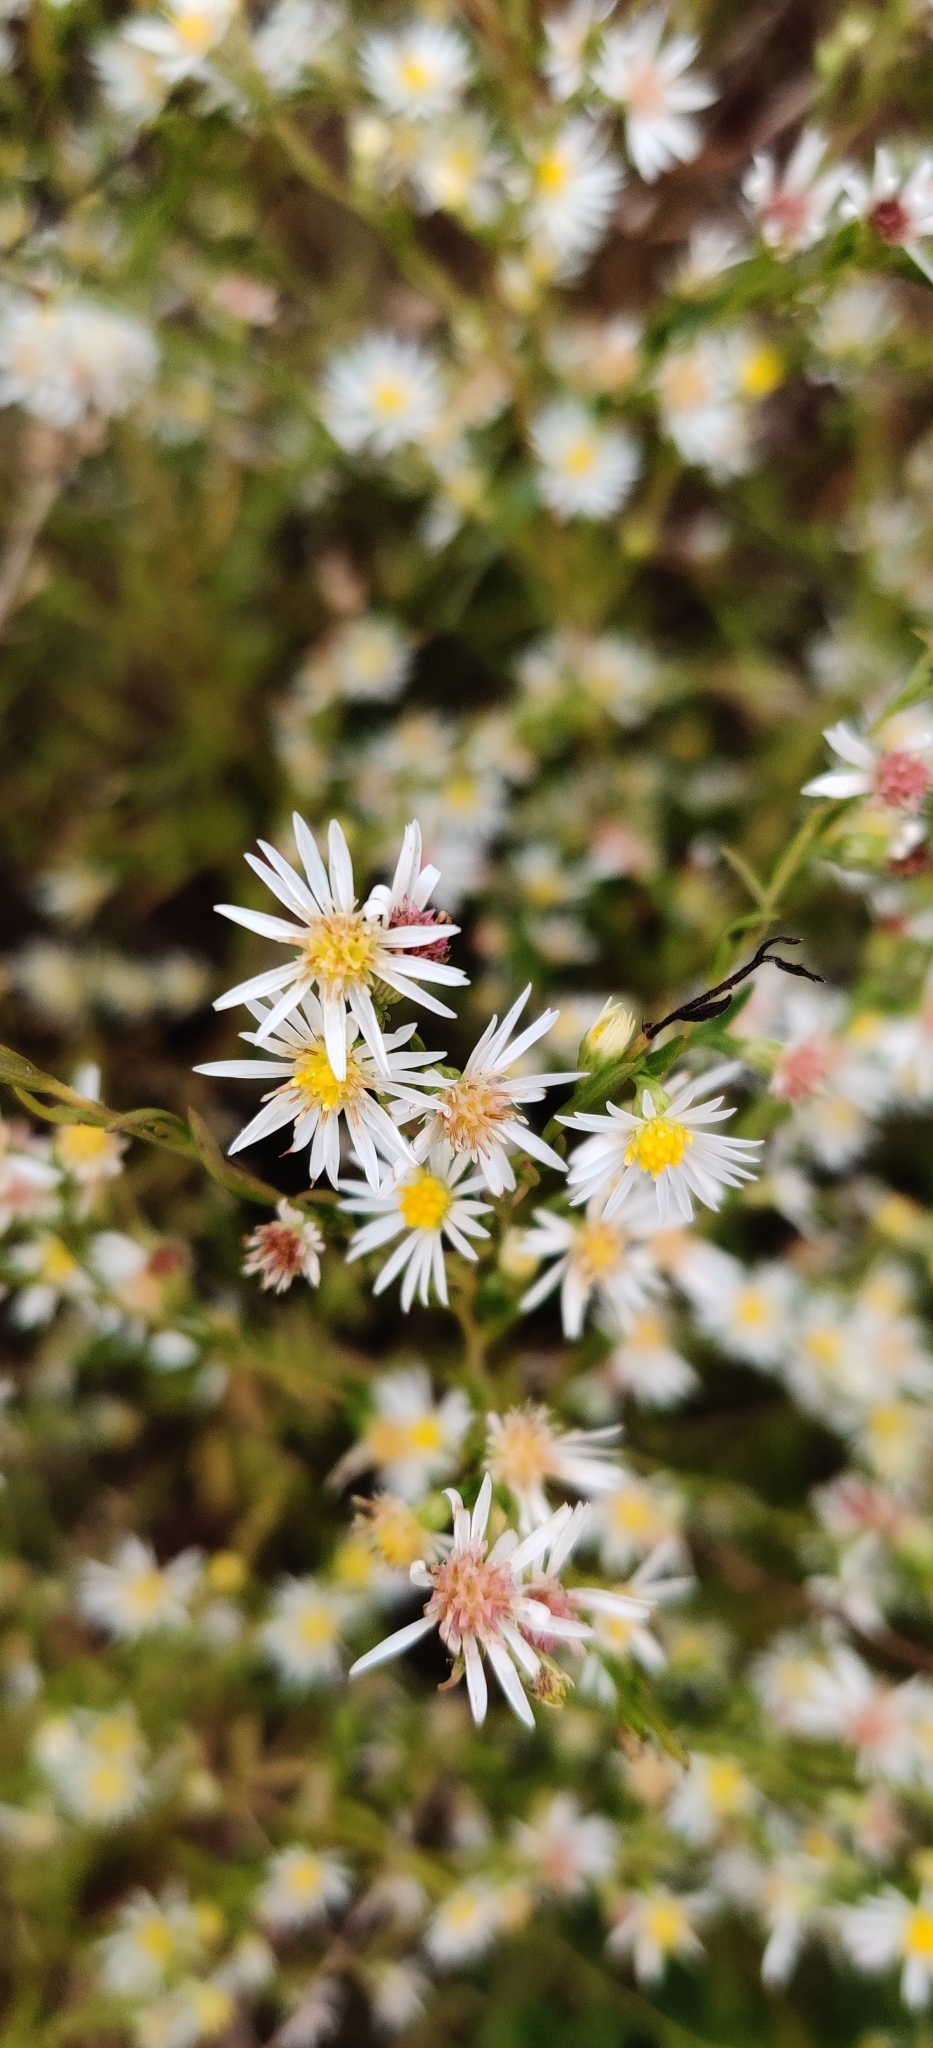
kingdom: Plantae
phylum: Tracheophyta
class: Magnoliopsida
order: Asterales
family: Asteraceae
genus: Symphyotrichum
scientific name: Symphyotrichum ericoides
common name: Heath aster
